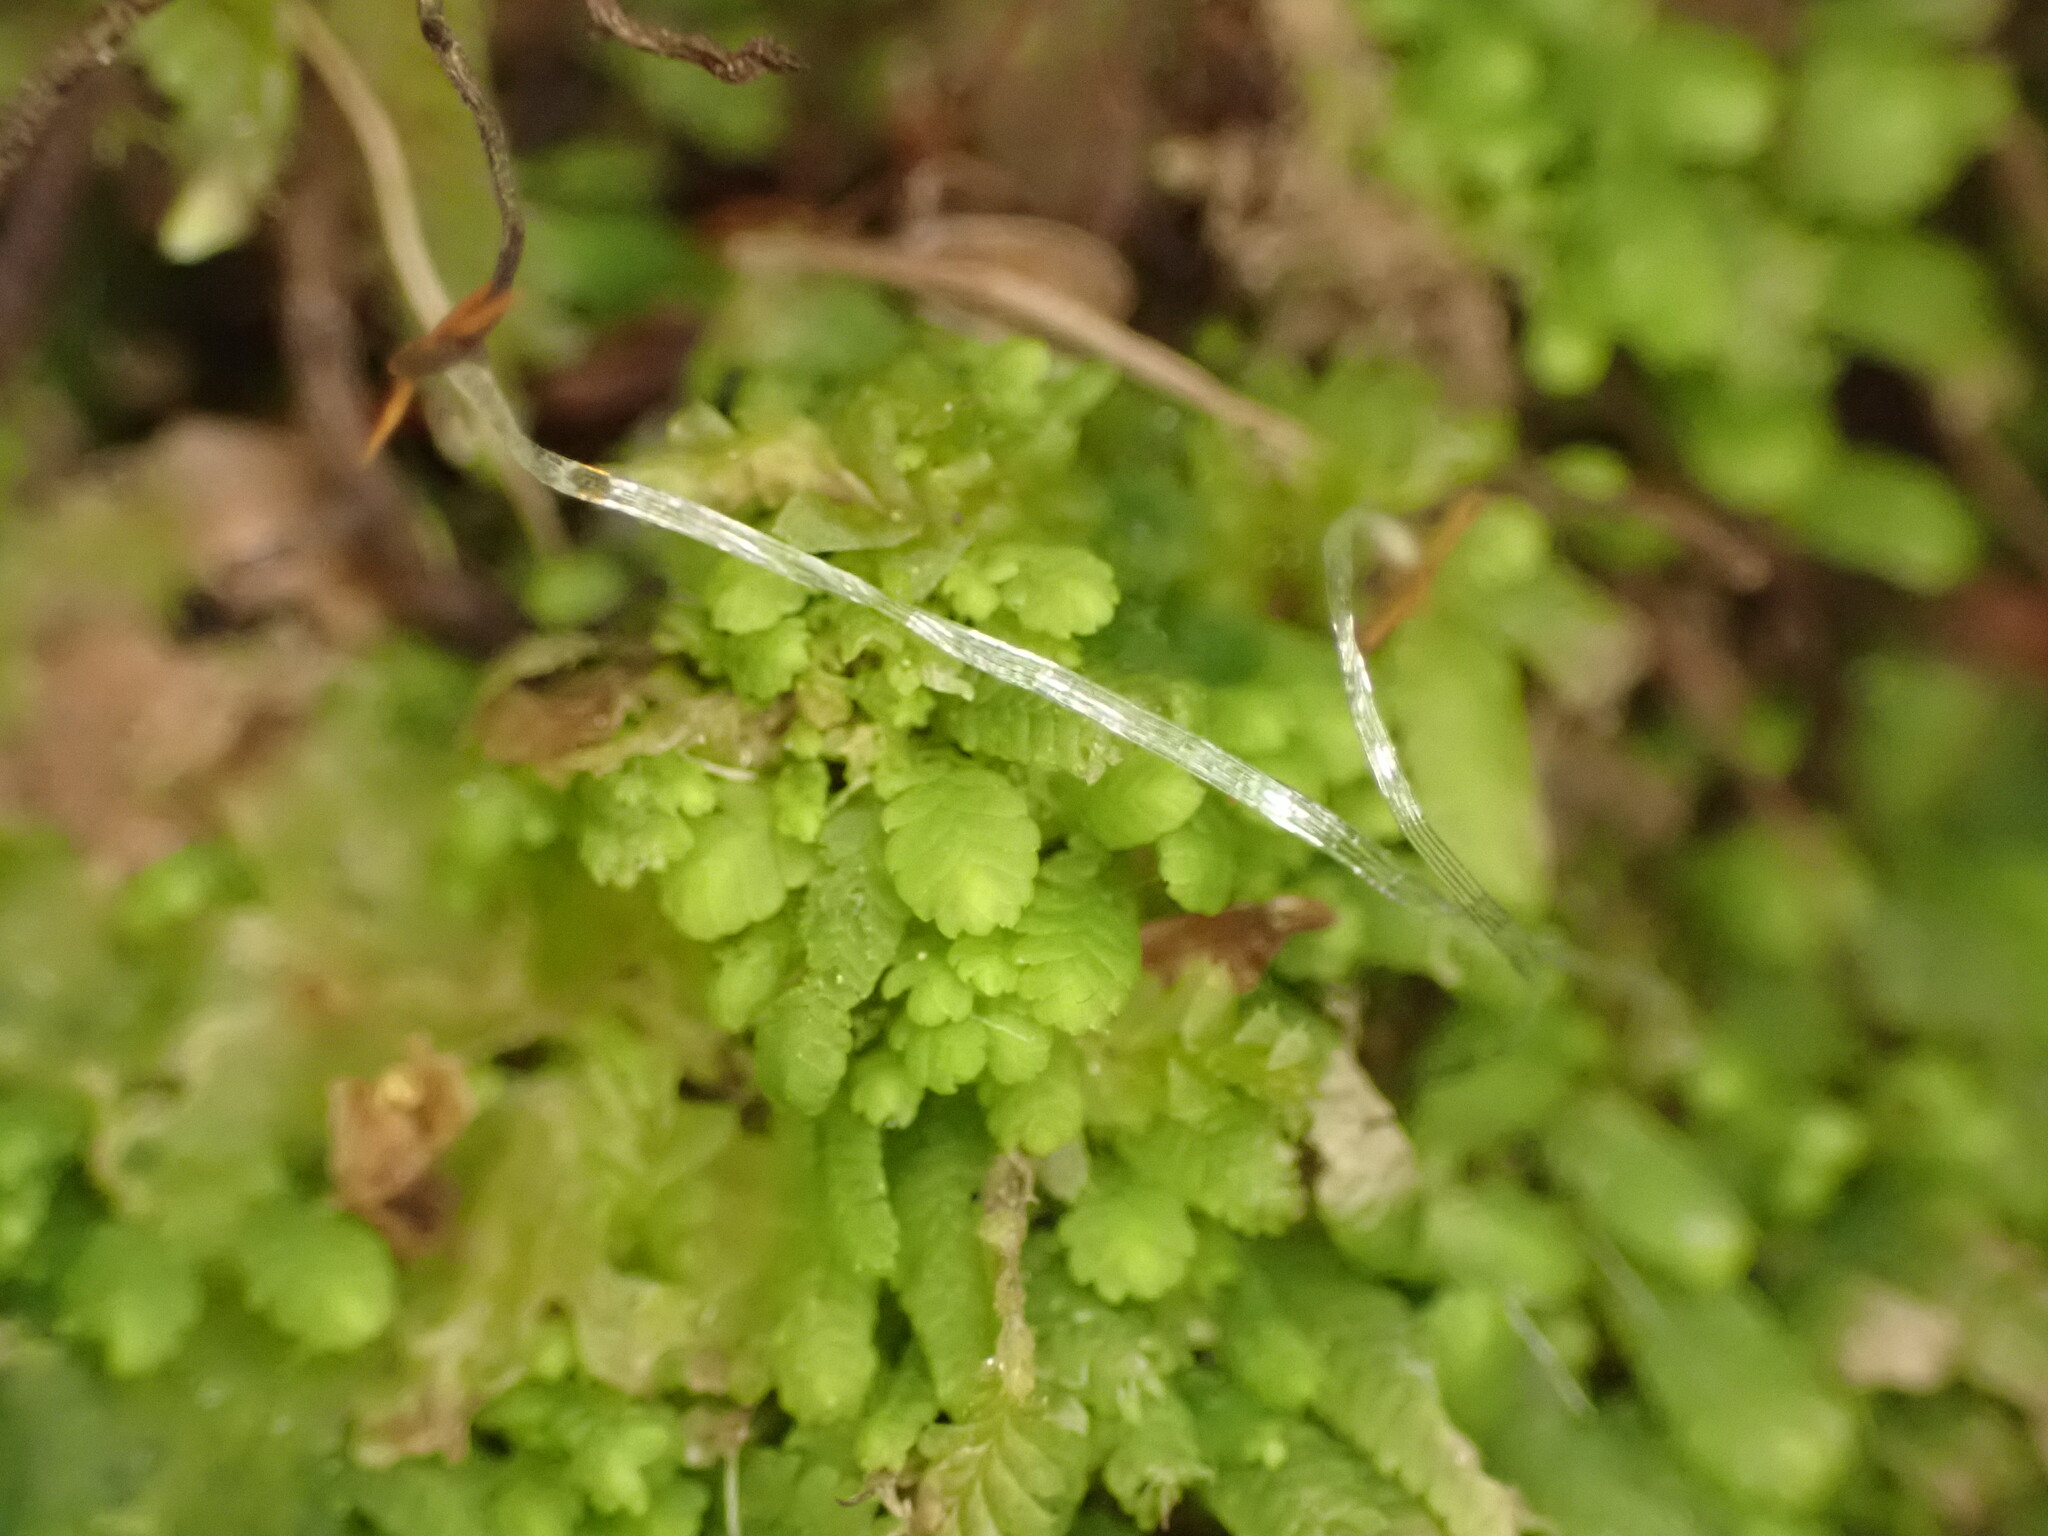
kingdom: Plantae
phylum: Marchantiophyta
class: Jungermanniopsida
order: Jungermanniales
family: Lepidoziaceae
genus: Lembidium
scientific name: Lembidium nutans
